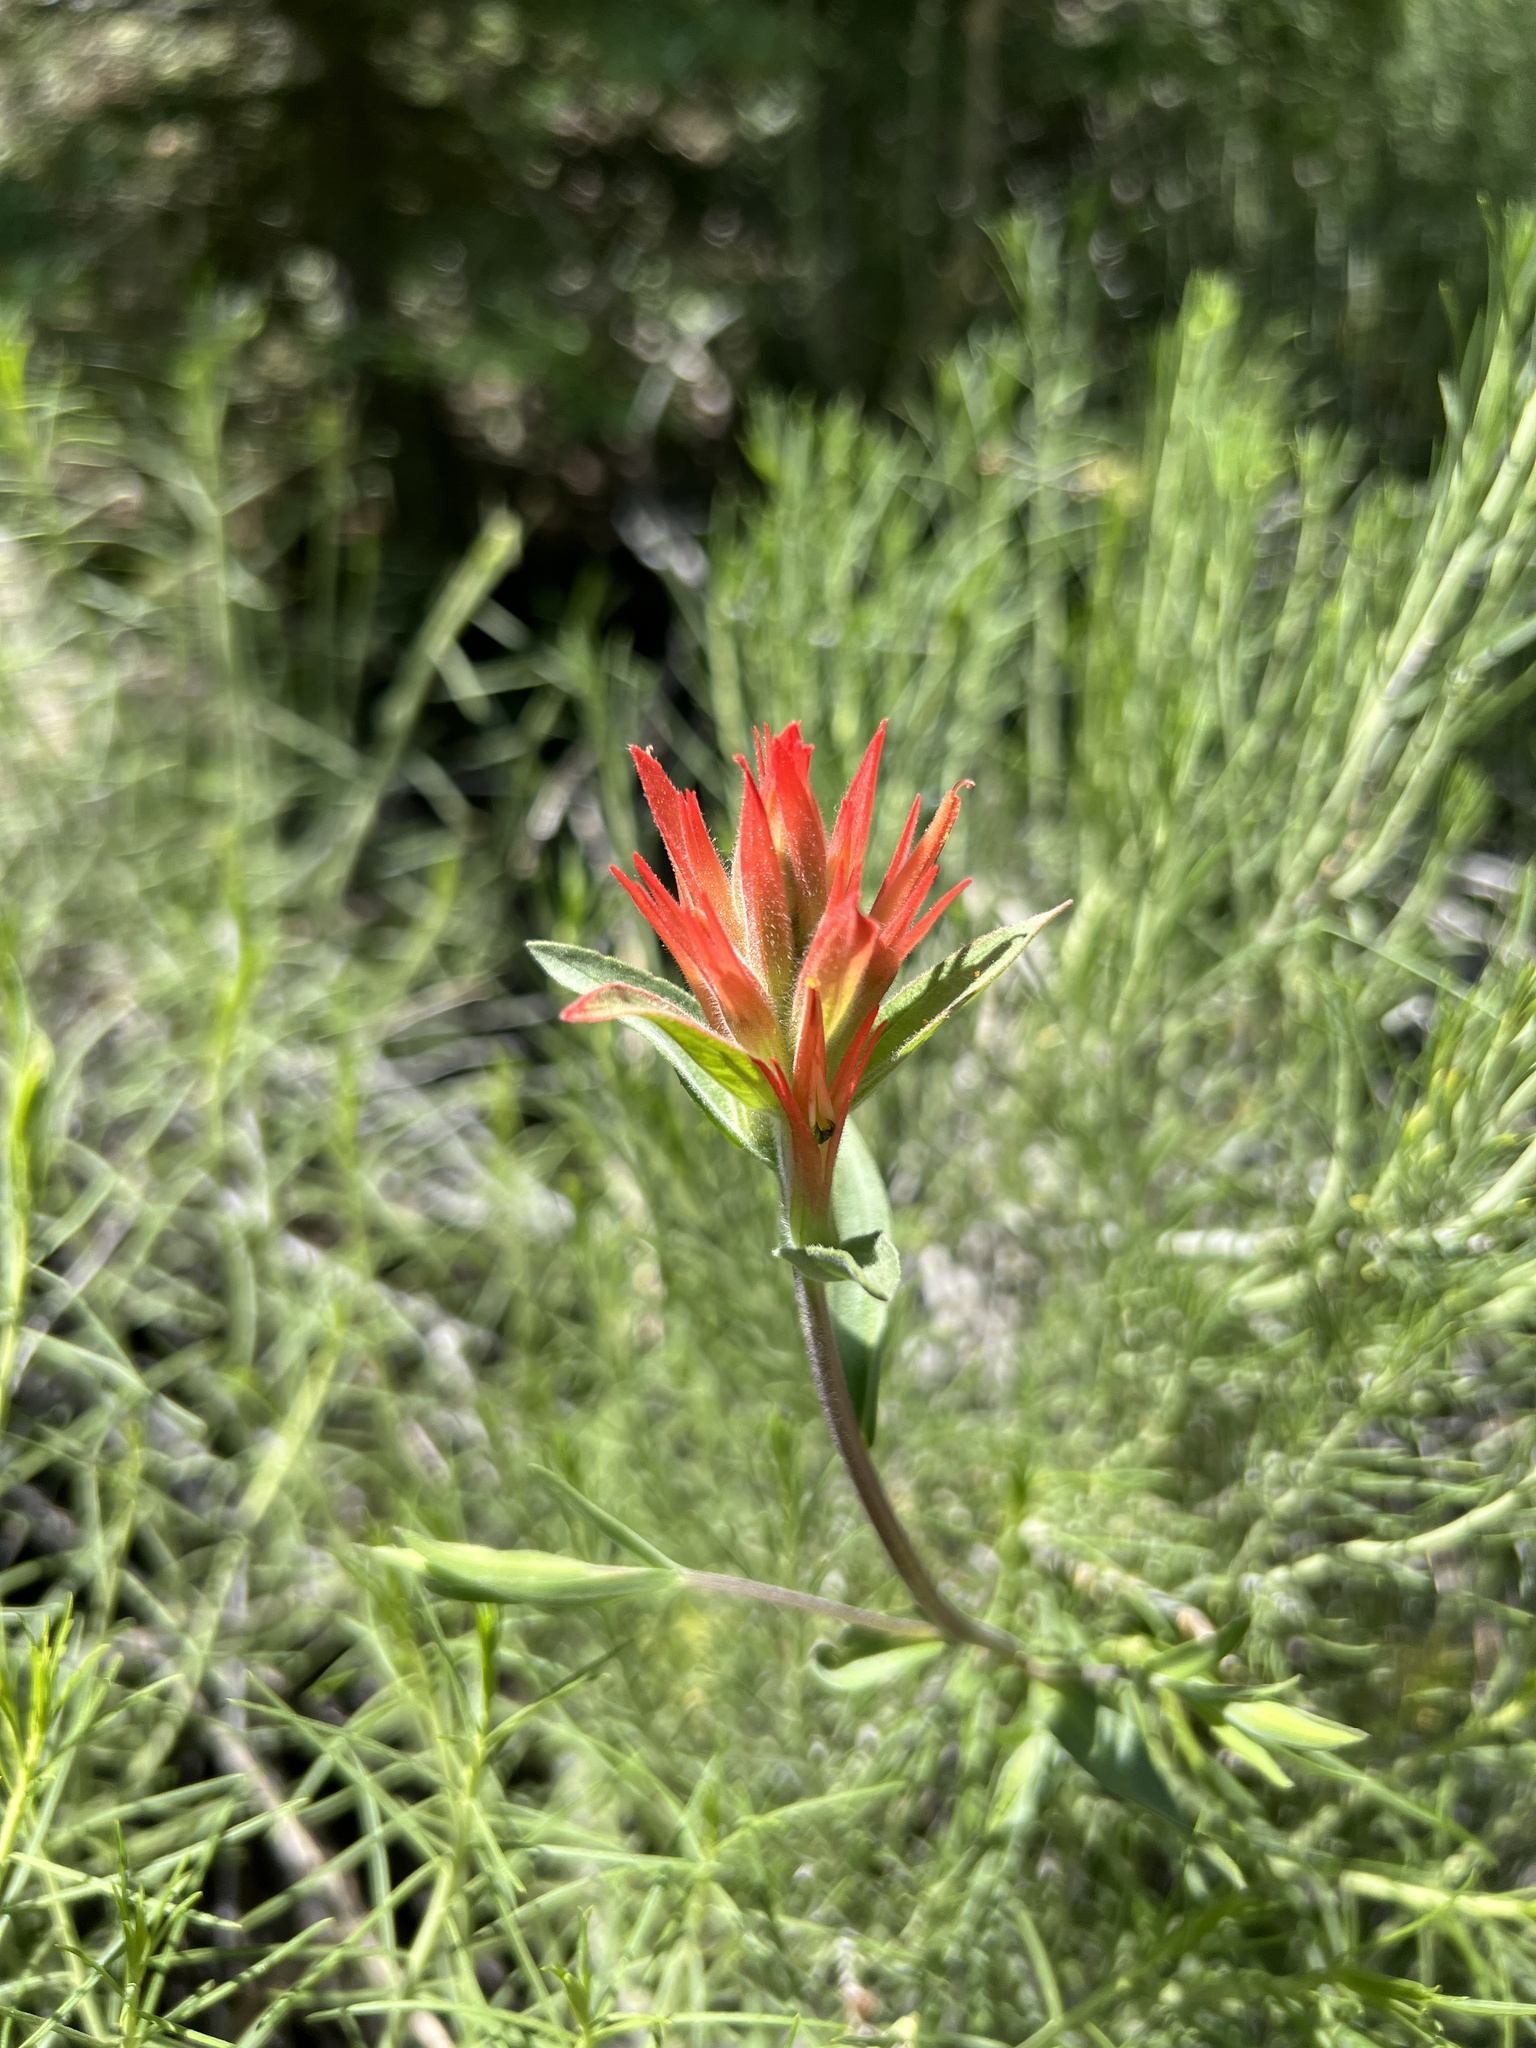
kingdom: Plantae
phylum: Tracheophyta
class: Magnoliopsida
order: Lamiales
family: Orobanchaceae
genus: Castilleja
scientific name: Castilleja miniata
